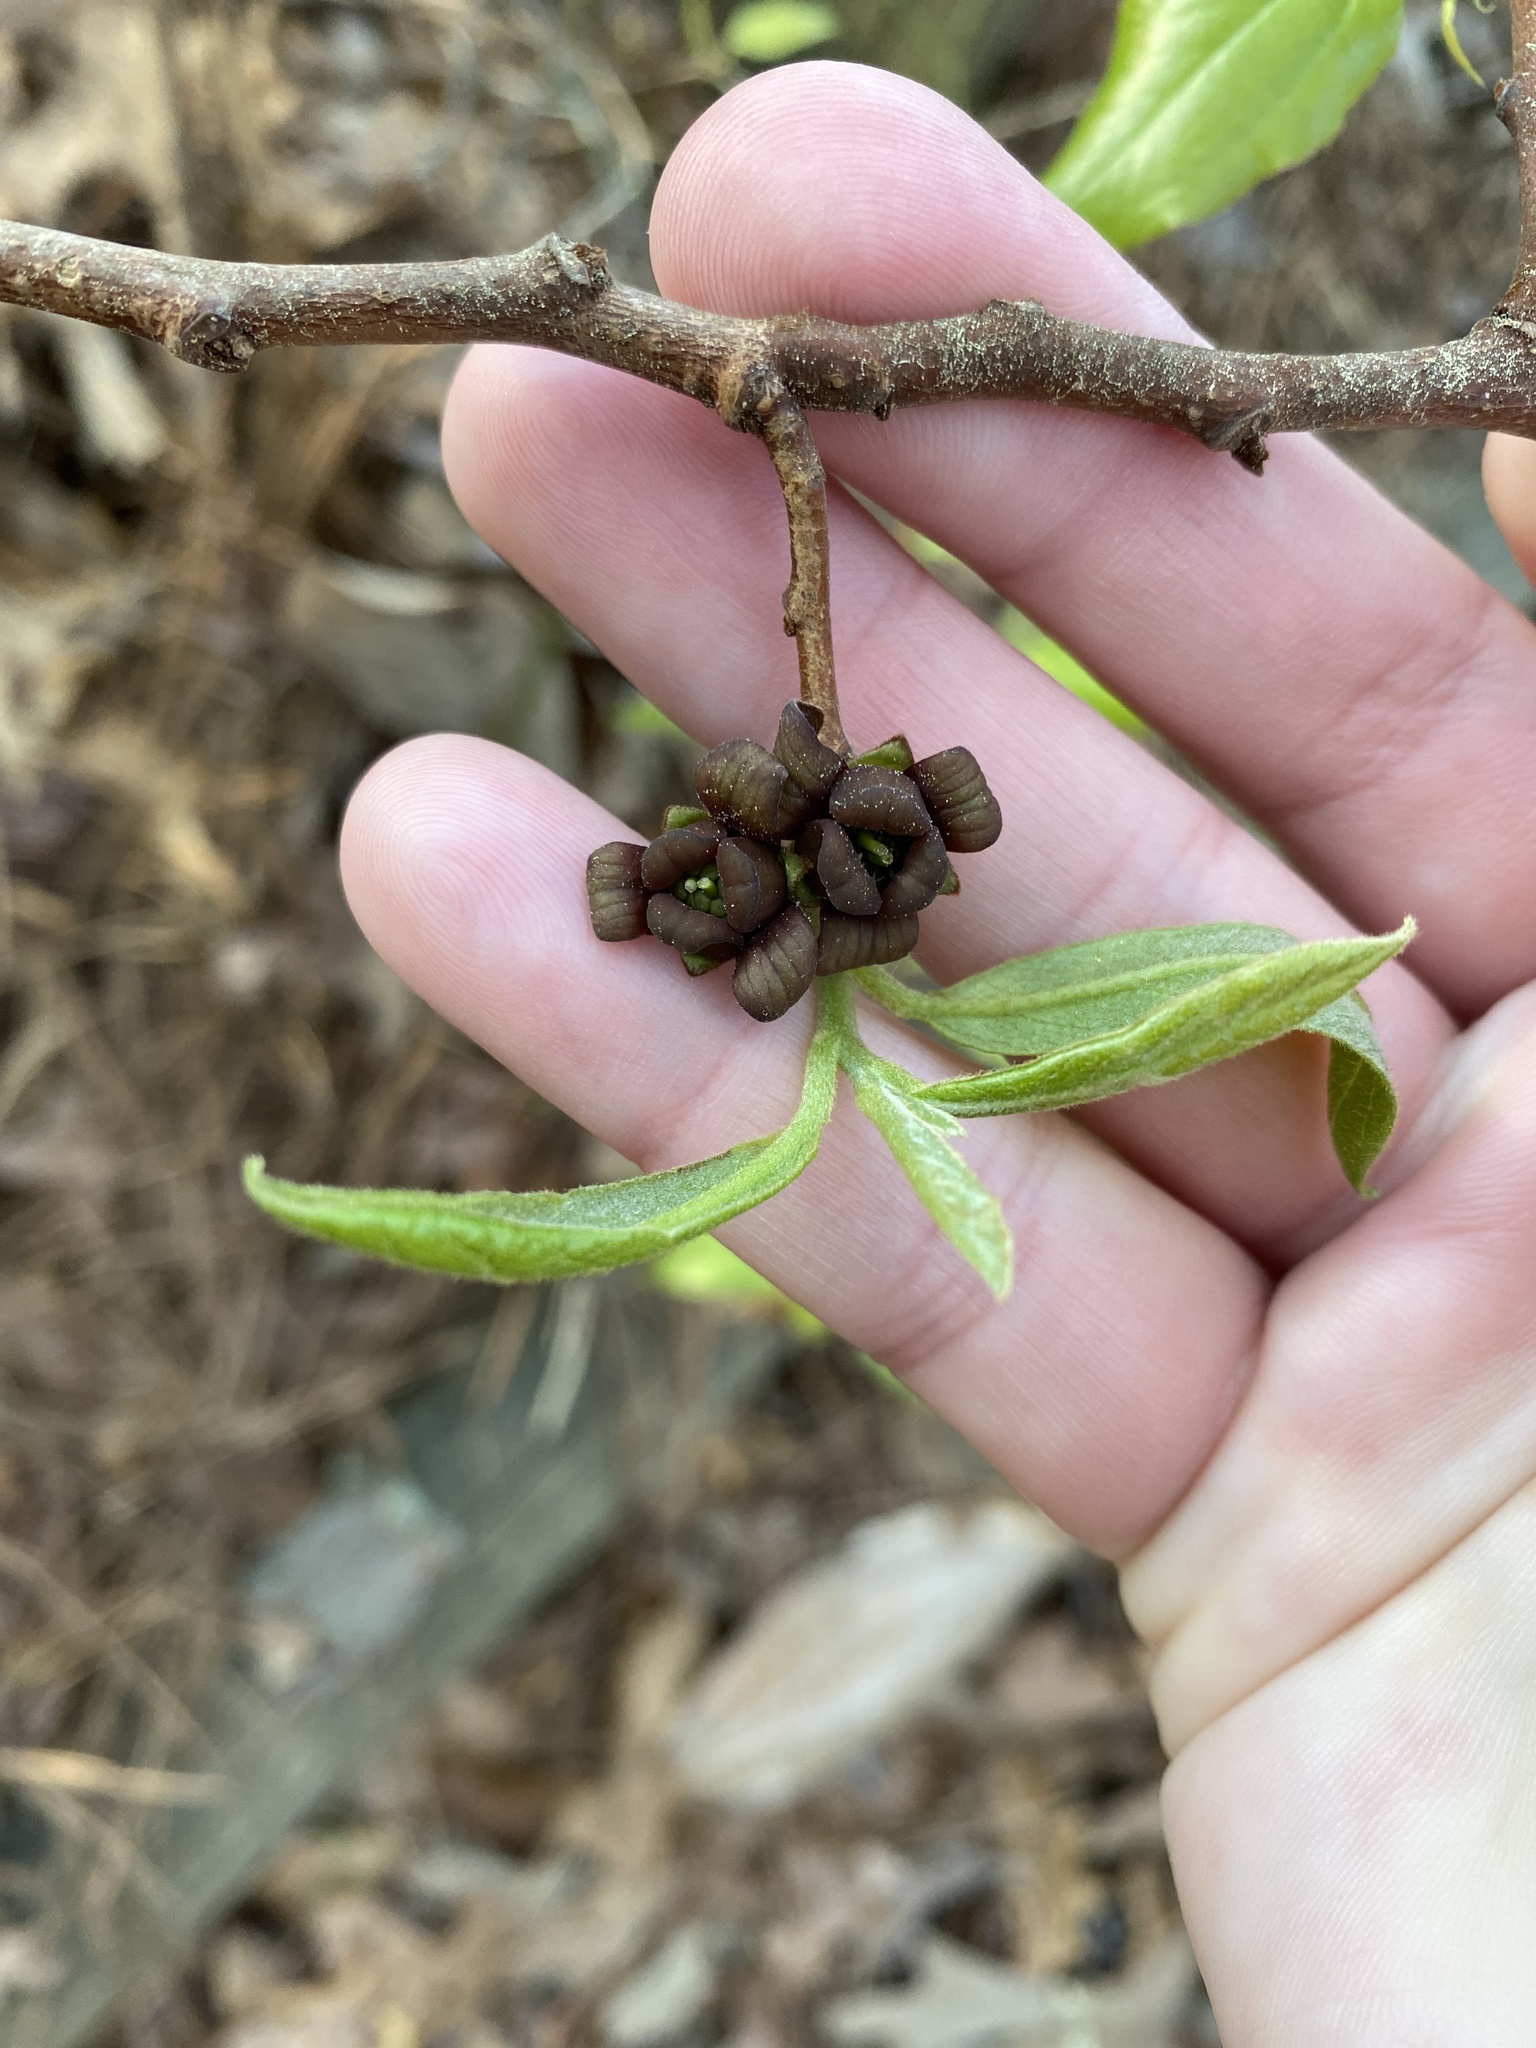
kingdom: Plantae
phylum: Tracheophyta
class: Magnoliopsida
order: Magnoliales
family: Annonaceae
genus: Asimina
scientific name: Asimina parviflora
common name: Dwarf pawpaw
